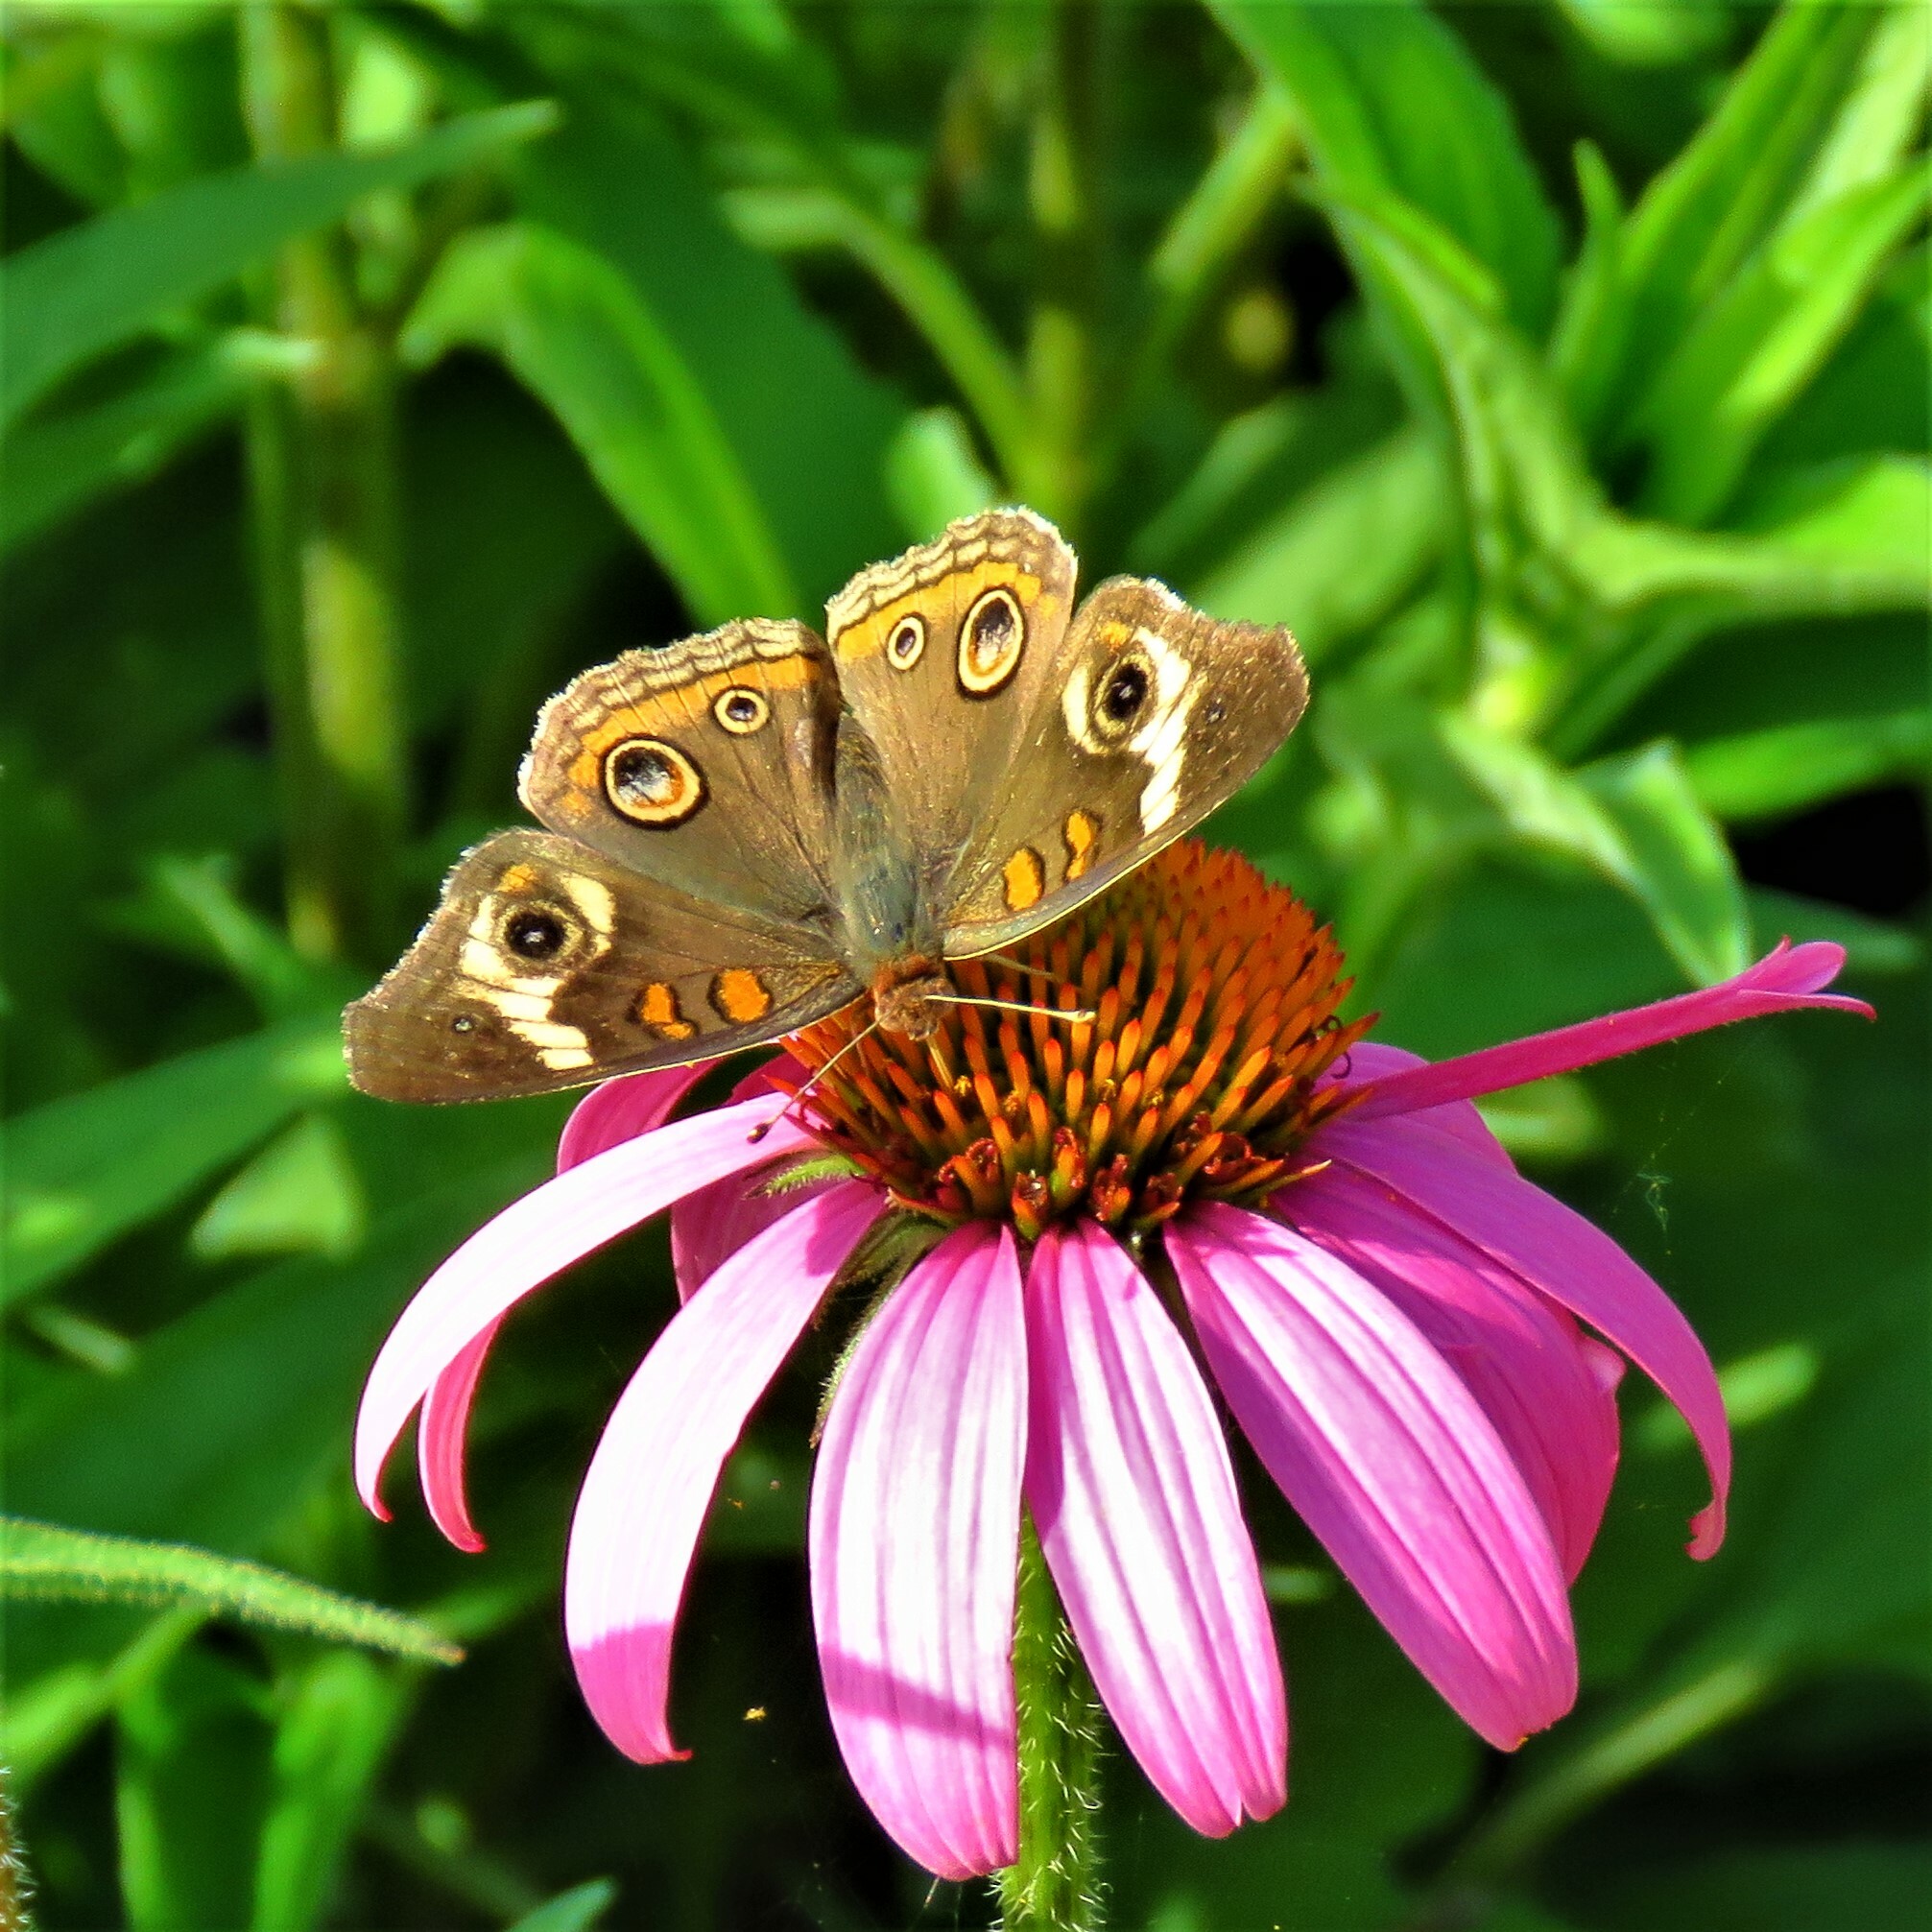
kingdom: Animalia
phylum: Arthropoda
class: Insecta
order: Lepidoptera
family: Nymphalidae
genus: Junonia
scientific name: Junonia coenia
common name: Common buckeye
